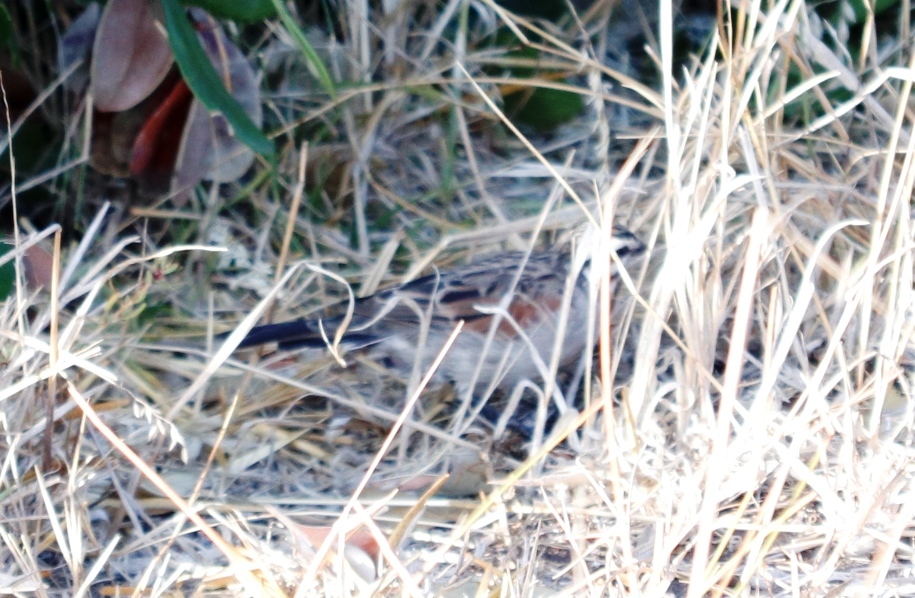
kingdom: Animalia
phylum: Chordata
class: Aves
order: Passeriformes
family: Emberizidae
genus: Emberiza
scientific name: Emberiza capensis
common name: Cape bunting
